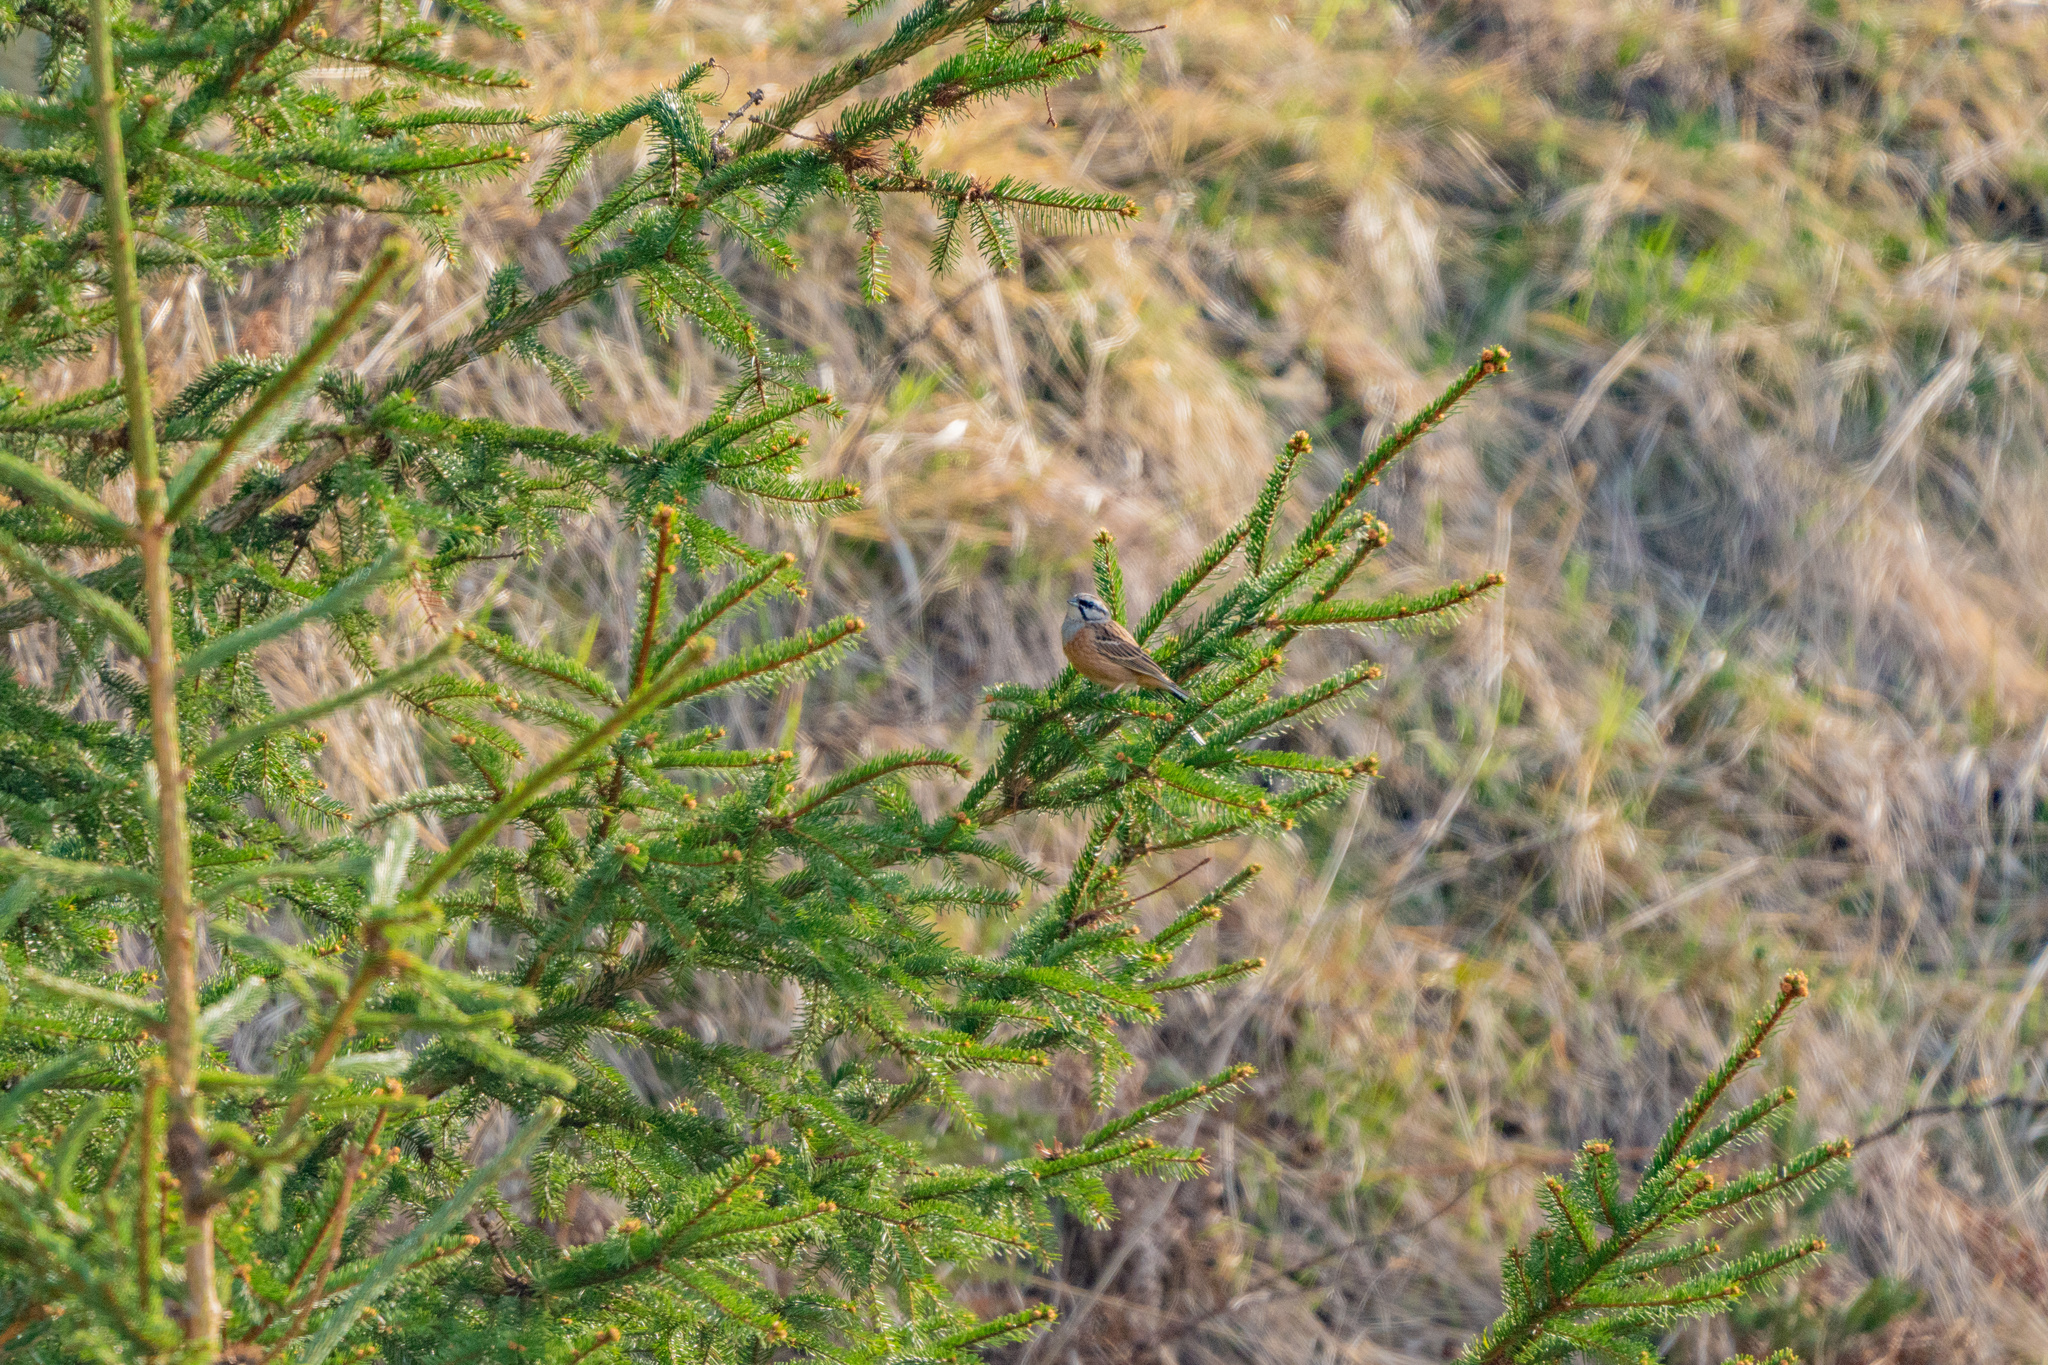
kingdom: Animalia
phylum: Chordata
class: Aves
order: Passeriformes
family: Emberizidae
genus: Emberiza
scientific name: Emberiza cia
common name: Rock bunting
